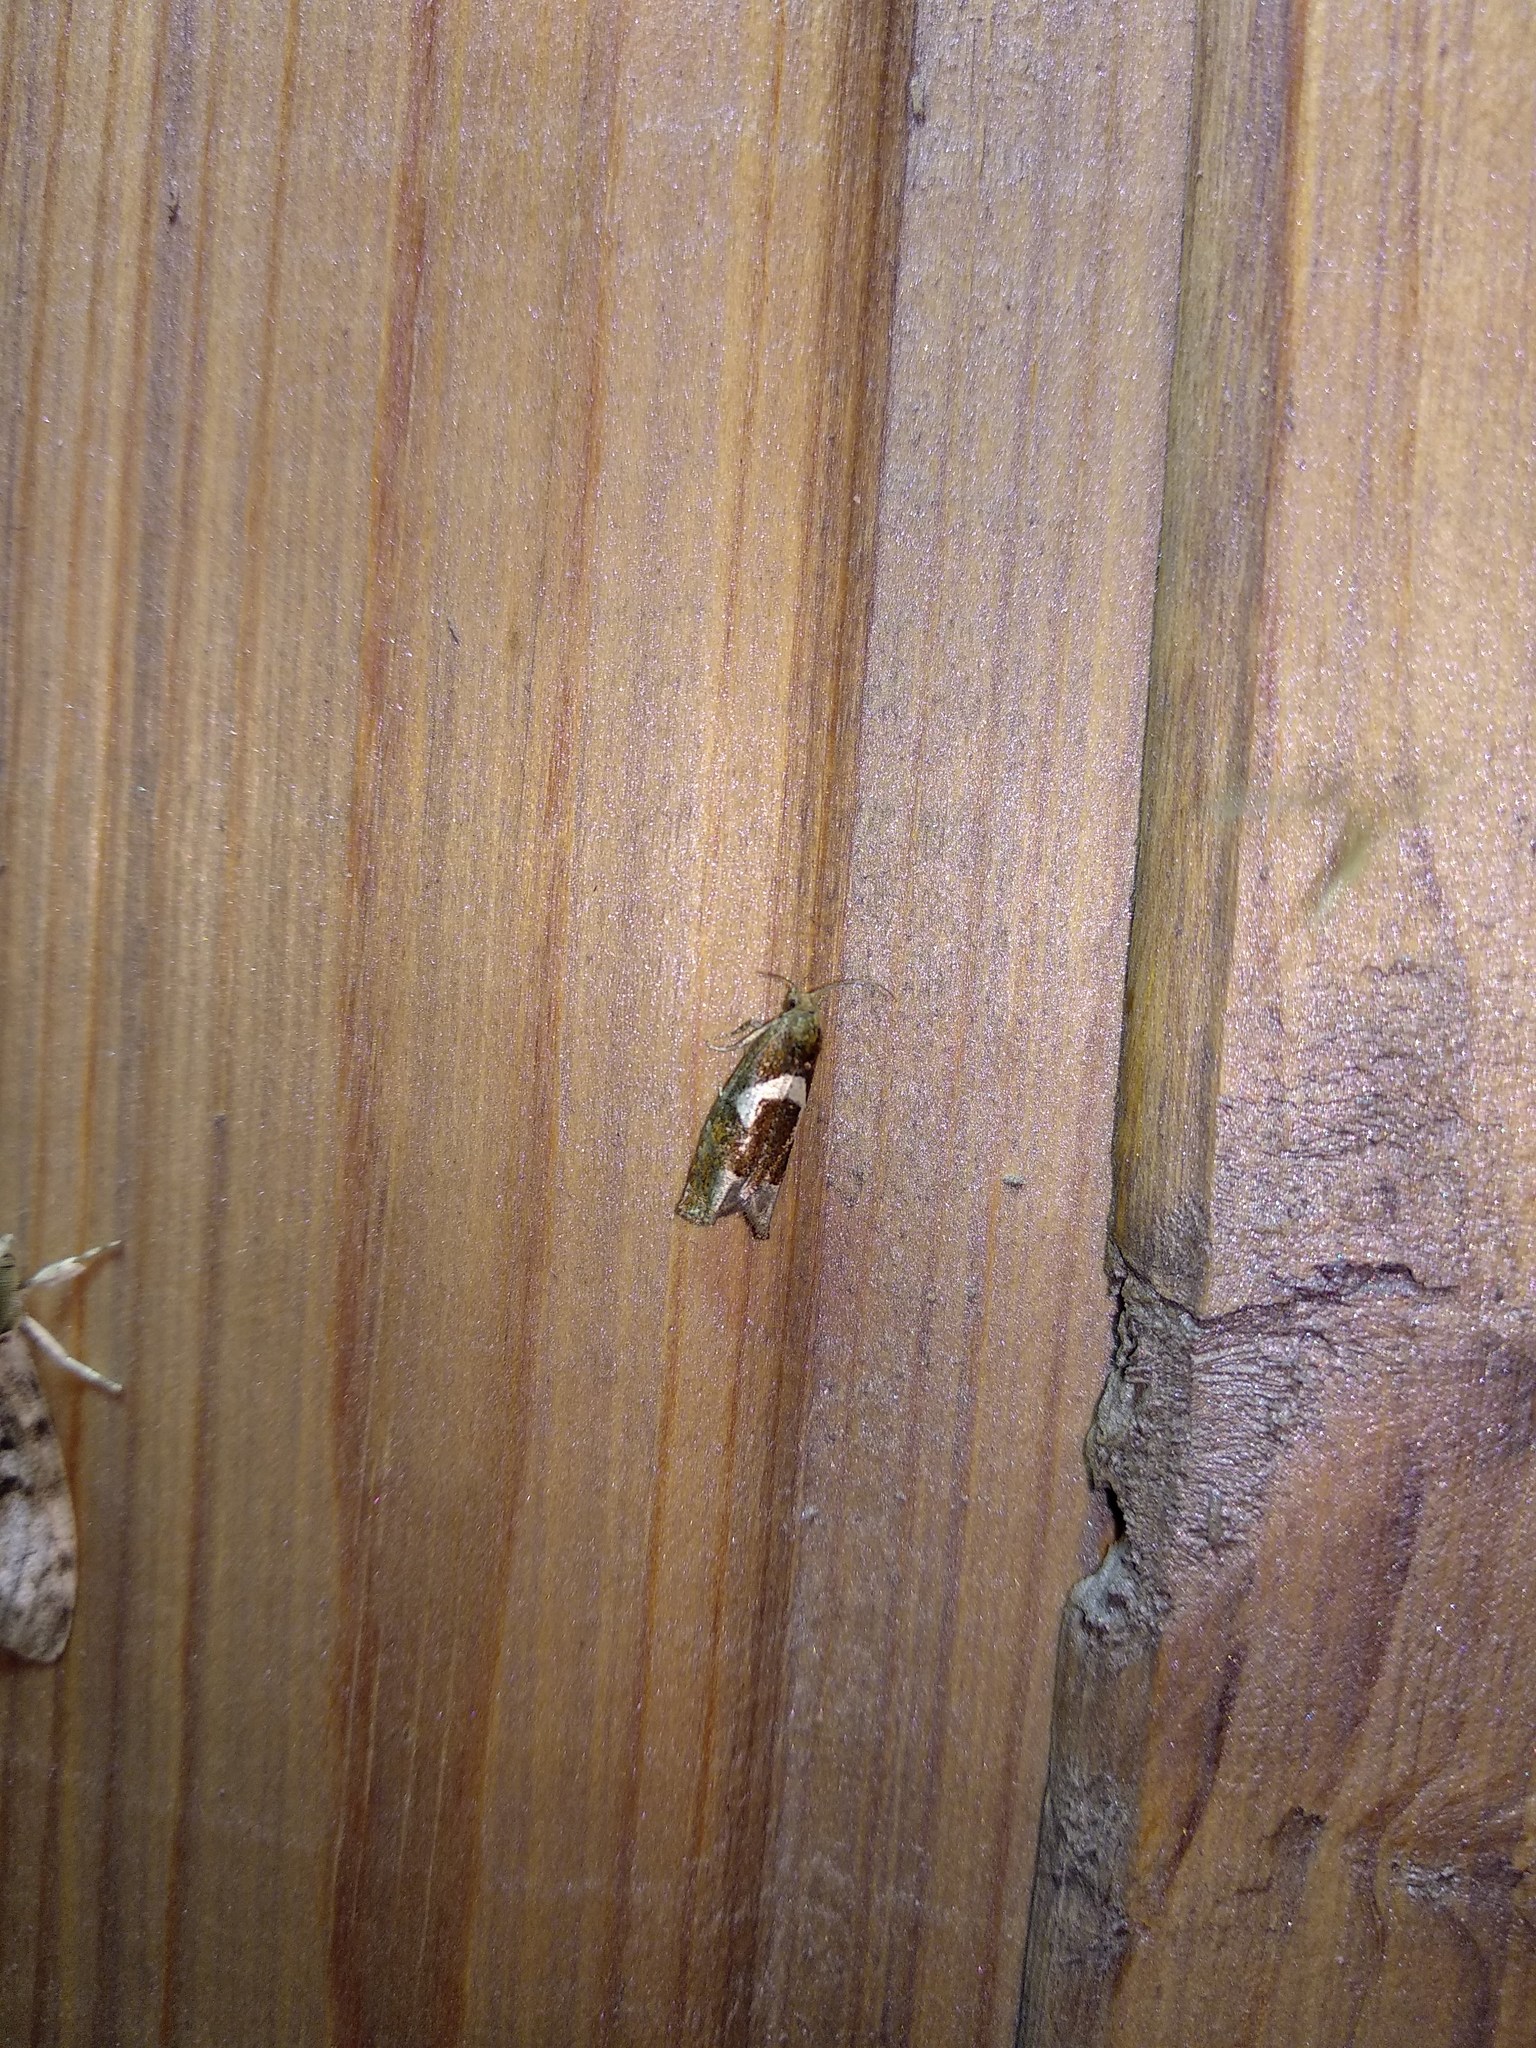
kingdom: Animalia
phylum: Arthropoda
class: Insecta
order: Lepidoptera
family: Tortricidae
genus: Epiblema
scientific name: Epiblema foenella
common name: White-foot bell
